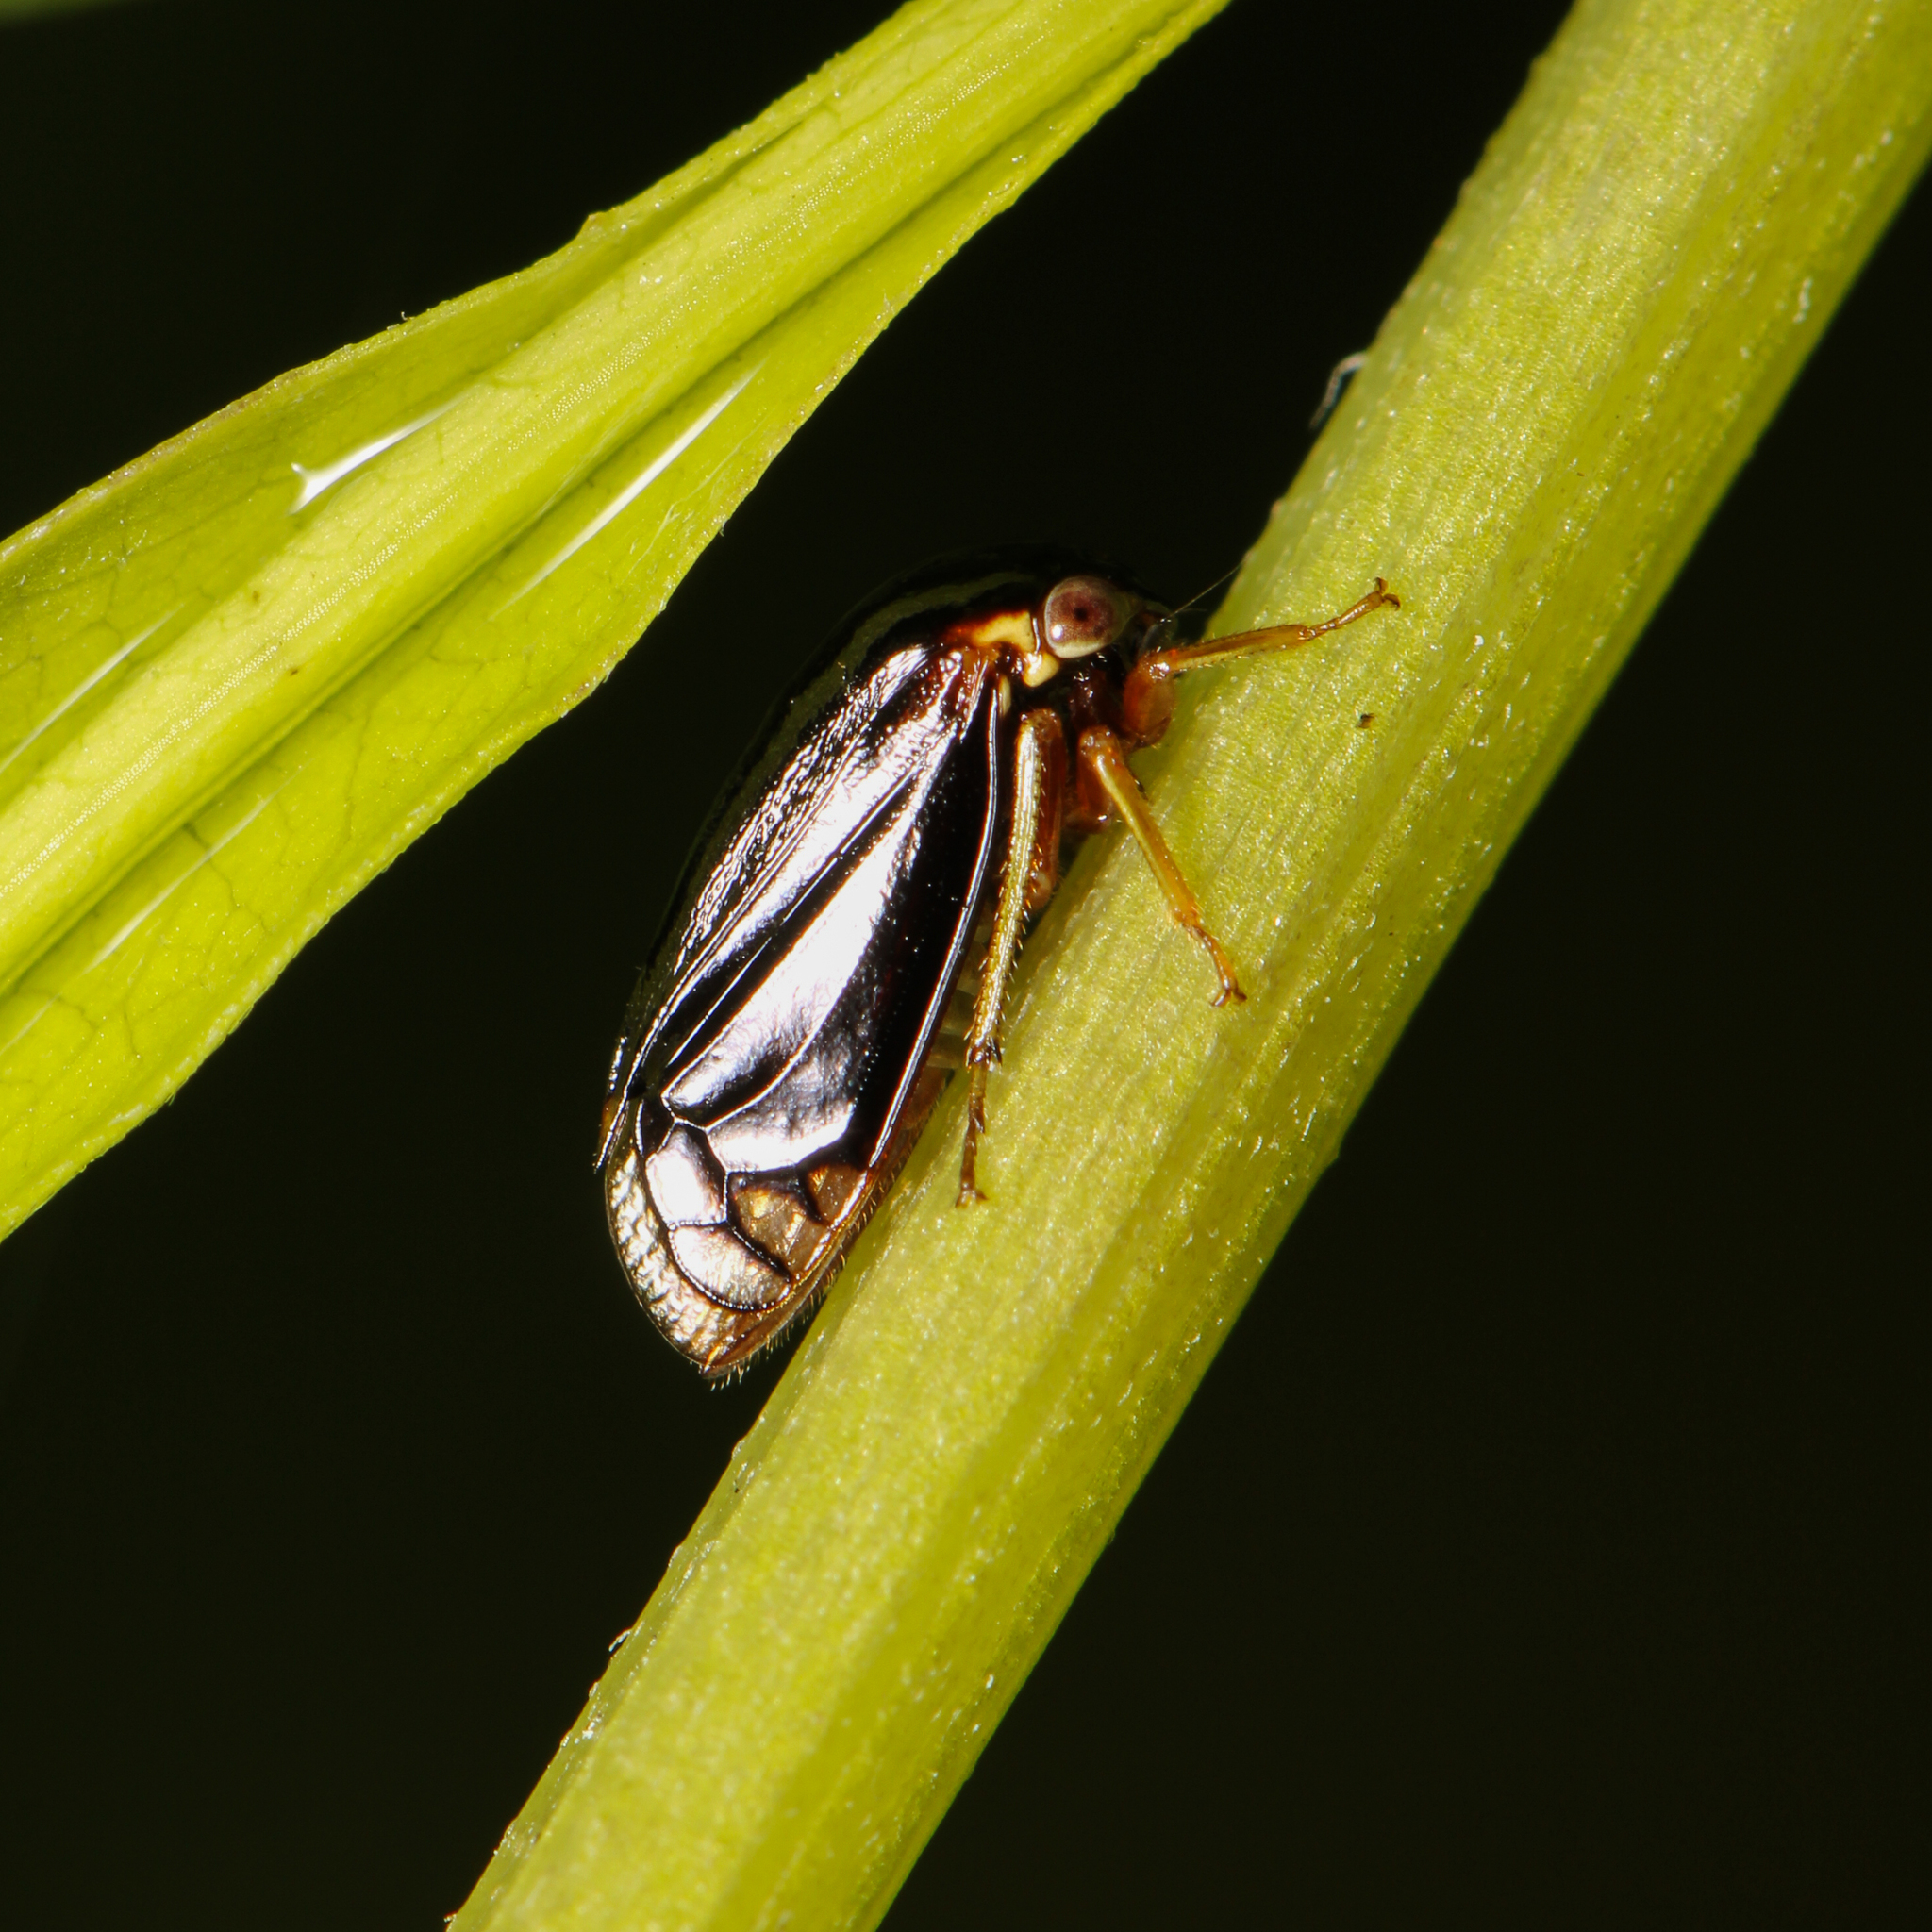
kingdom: Animalia
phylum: Arthropoda
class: Insecta
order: Hemiptera
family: Membracidae
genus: Acutalis
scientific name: Acutalis tartarea
